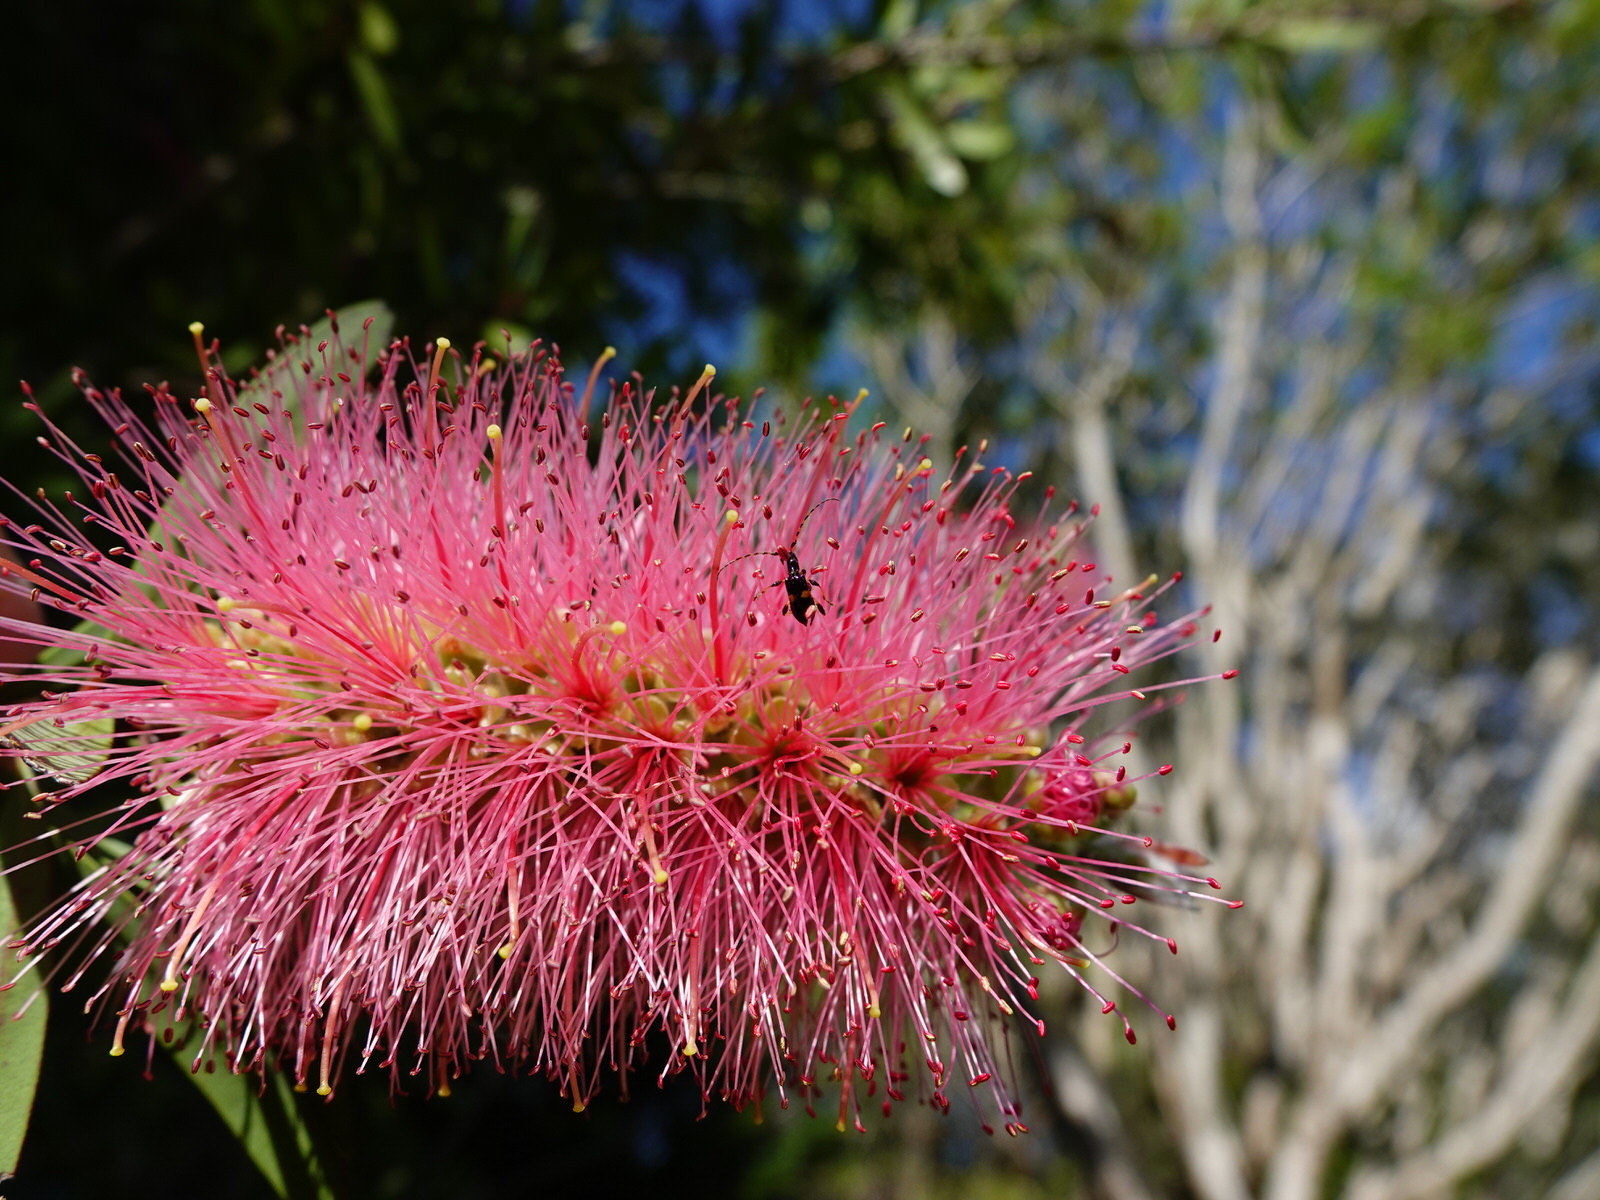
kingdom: Animalia
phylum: Arthropoda
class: Insecta
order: Coleoptera
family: Cerambycidae
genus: Zorion
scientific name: Zorion guttigerum
